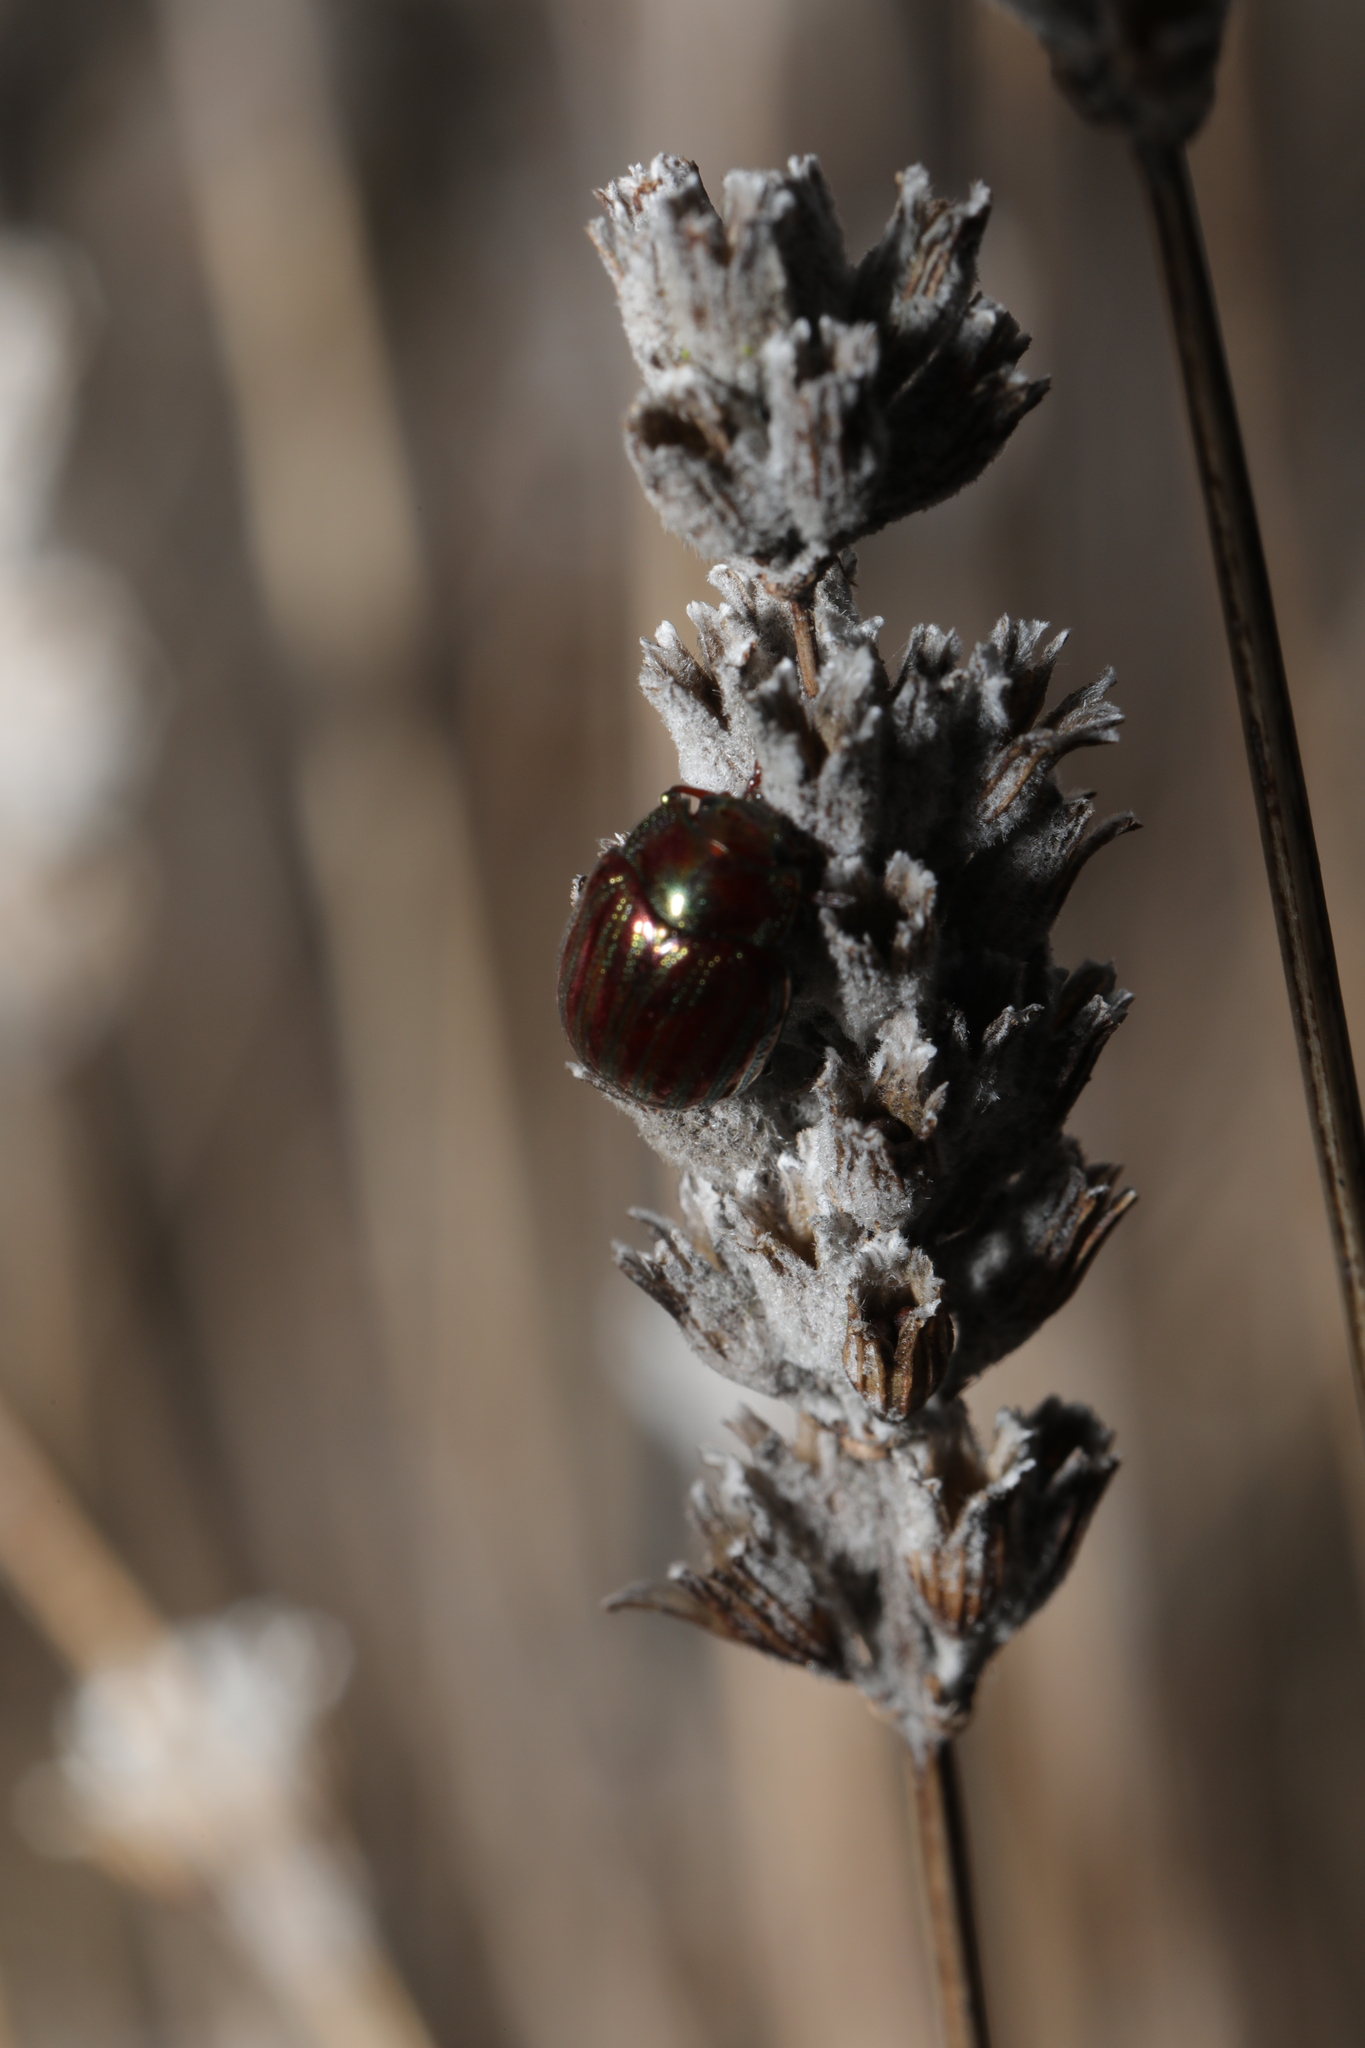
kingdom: Animalia
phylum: Arthropoda
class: Insecta
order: Coleoptera
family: Chrysomelidae
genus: Chrysolina
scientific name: Chrysolina americana
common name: Rosemary beetle
